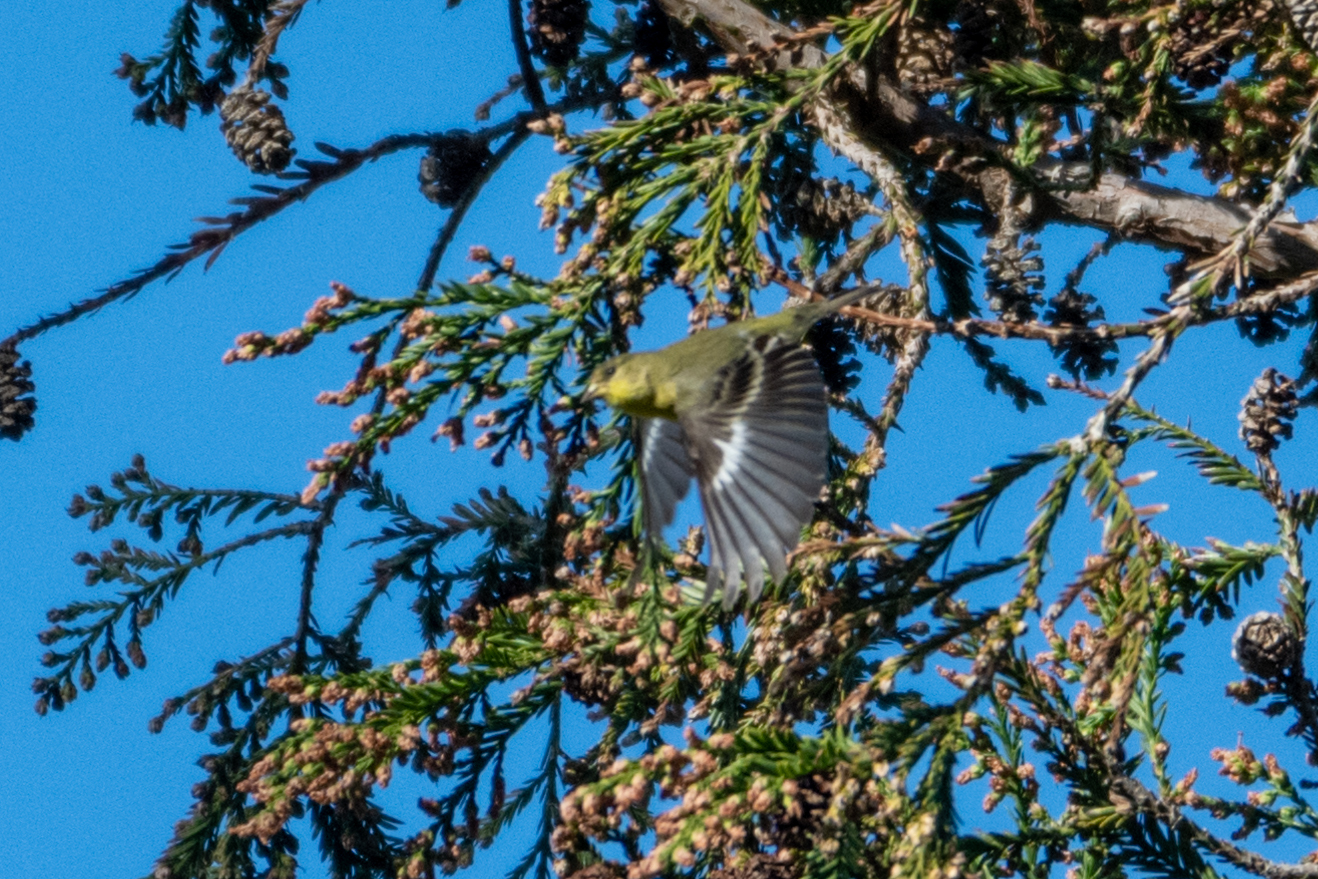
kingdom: Animalia
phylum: Chordata
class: Aves
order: Passeriformes
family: Fringillidae
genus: Spinus
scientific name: Spinus psaltria
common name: Lesser goldfinch
